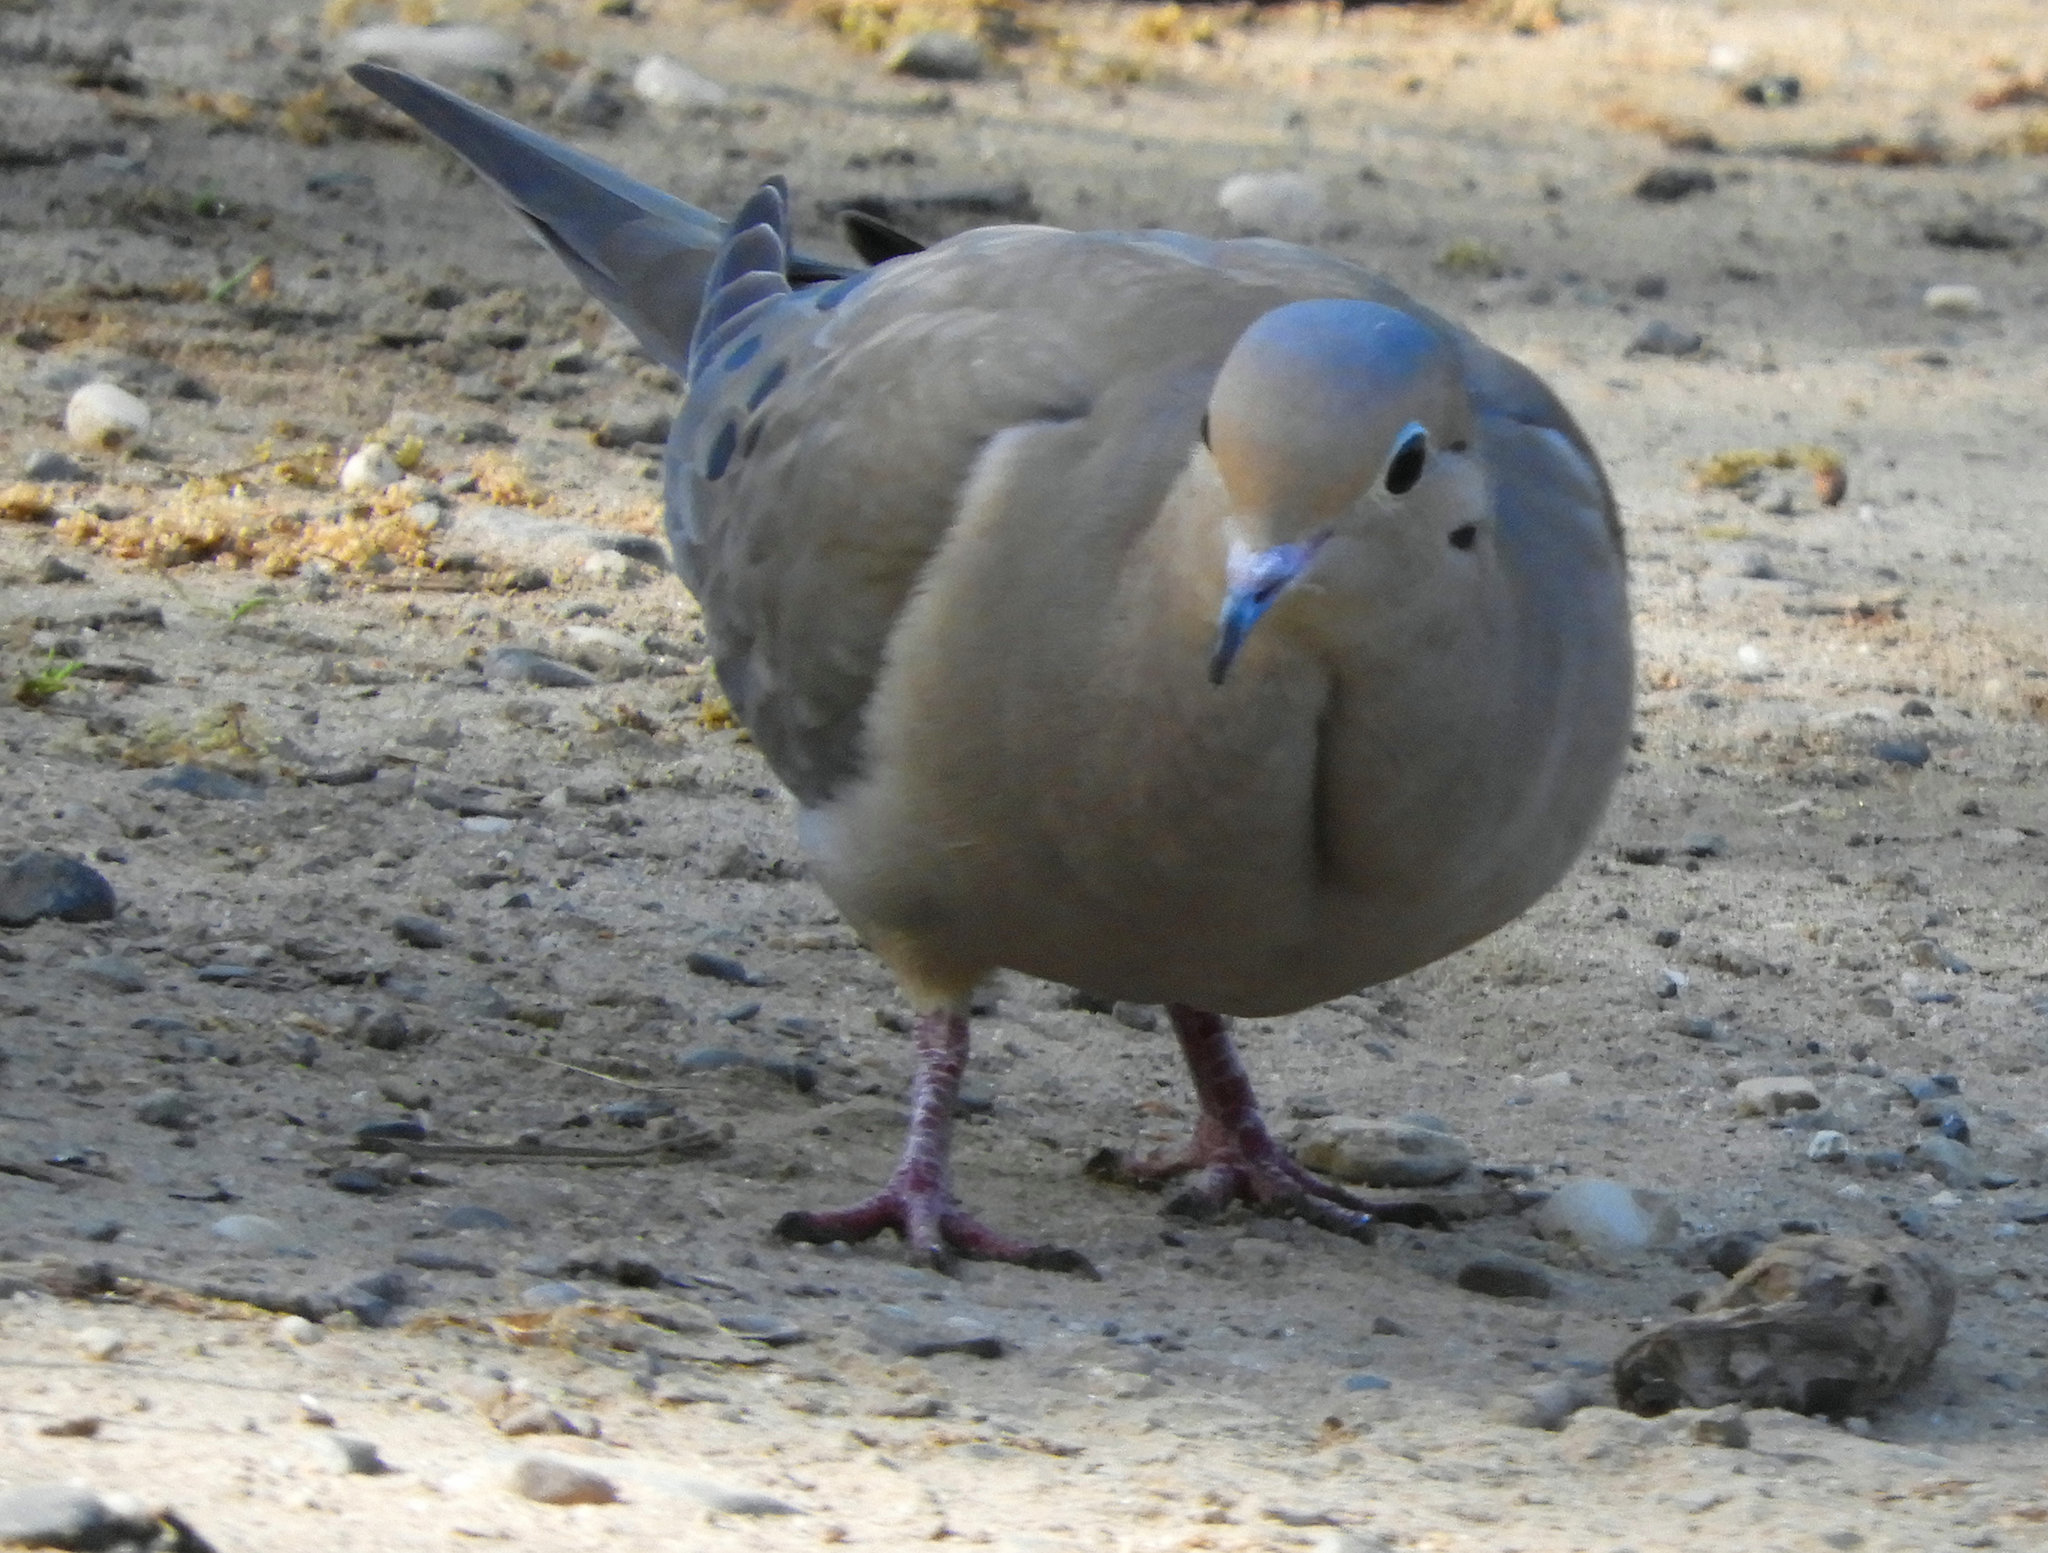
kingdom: Animalia
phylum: Chordata
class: Aves
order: Columbiformes
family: Columbidae
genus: Zenaida
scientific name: Zenaida macroura
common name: Mourning dove
